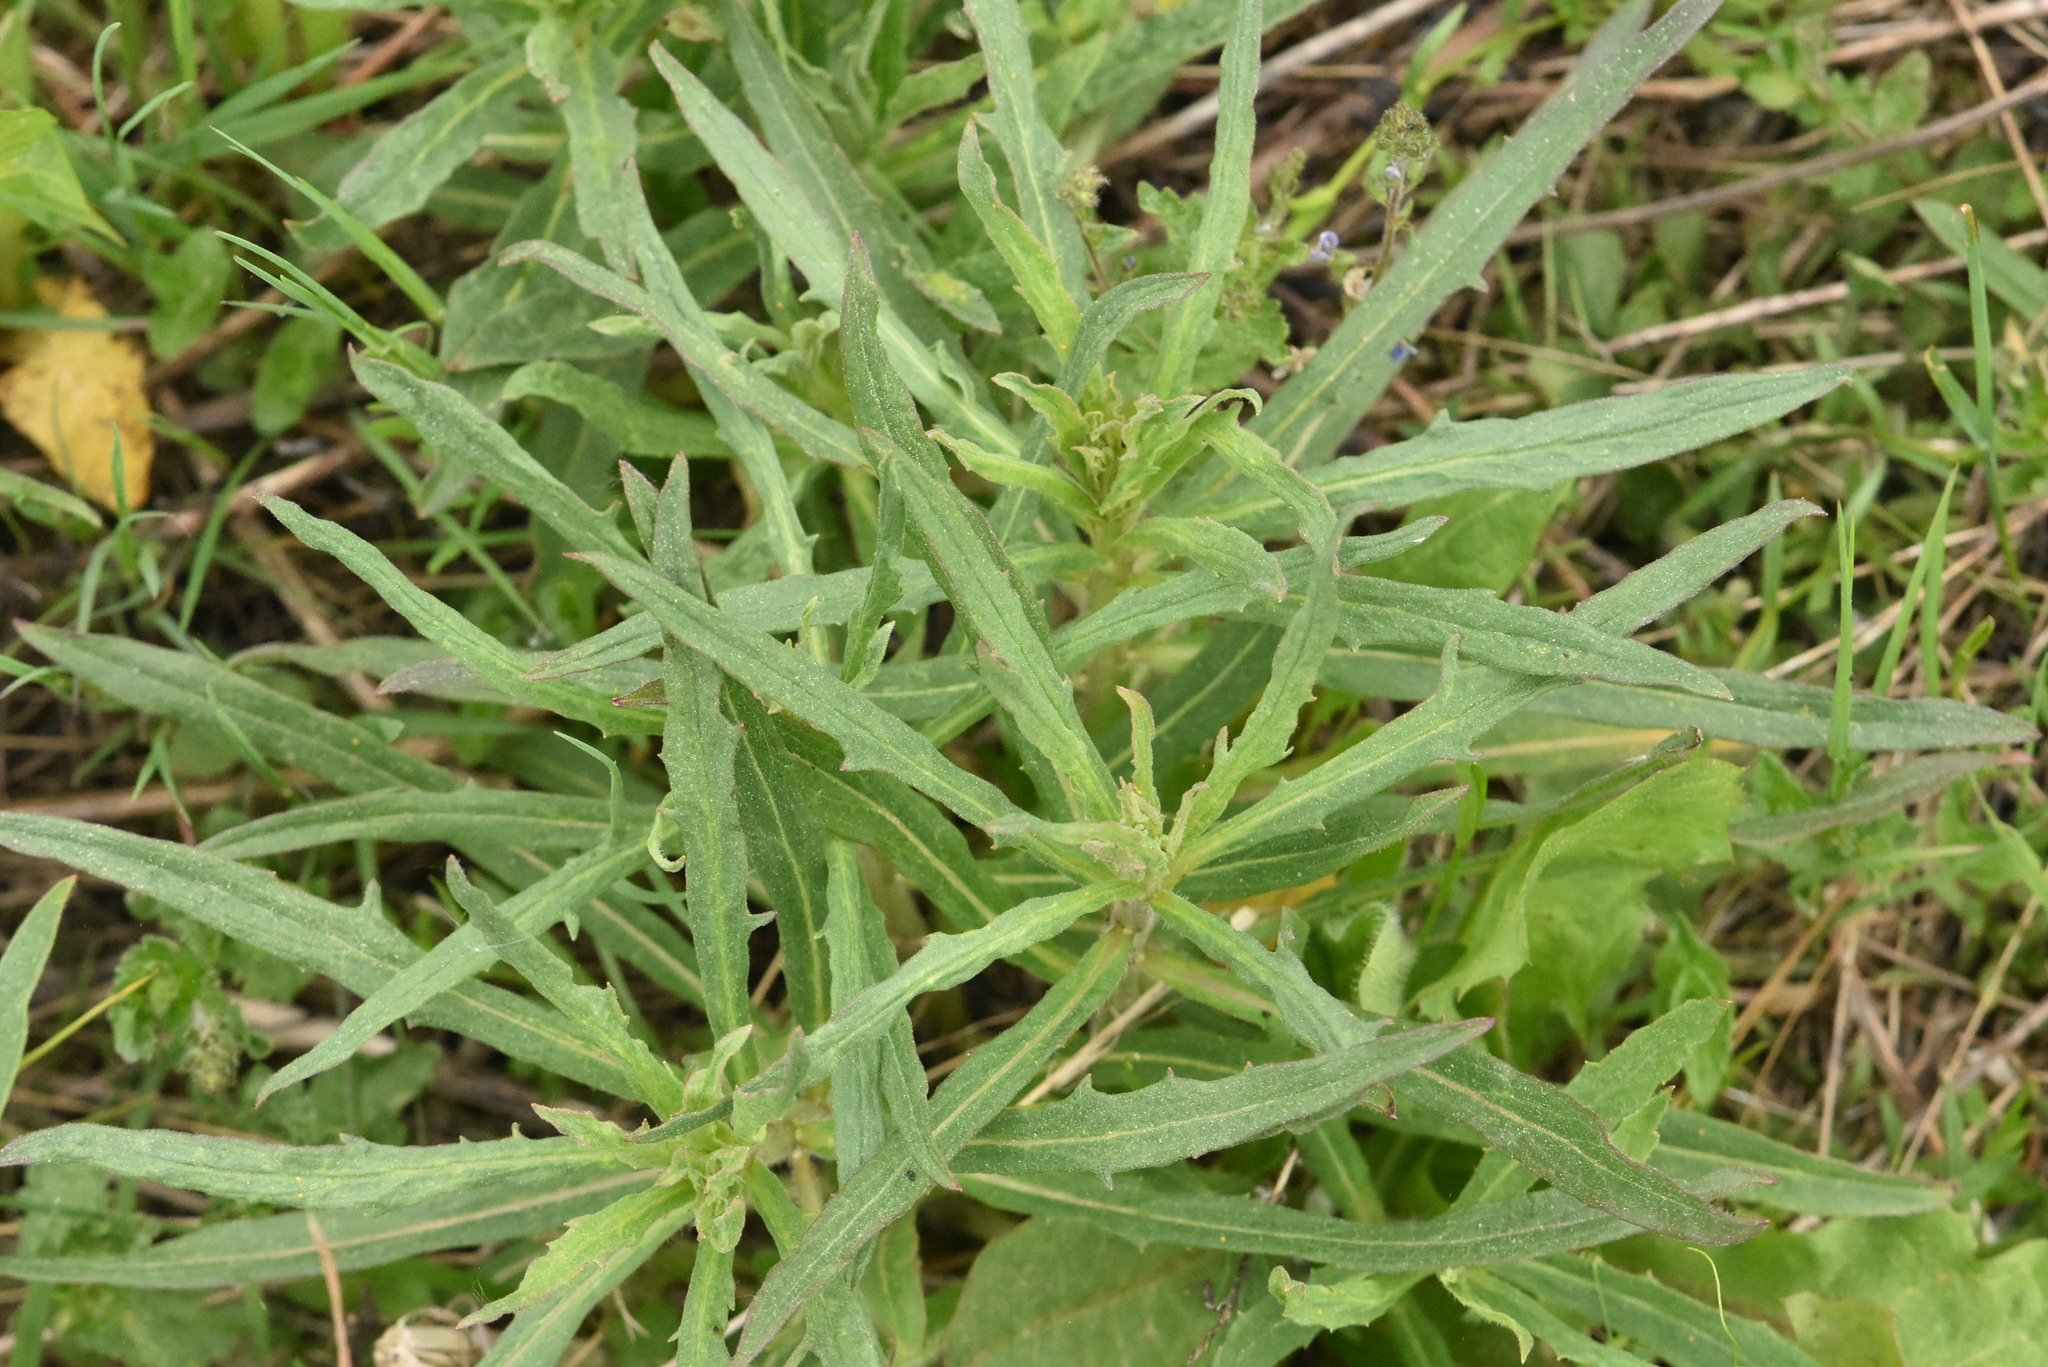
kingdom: Plantae
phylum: Tracheophyta
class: Magnoliopsida
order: Asterales
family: Asteraceae
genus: Hieracium
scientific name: Hieracium umbellatum
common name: Northern hawkweed
